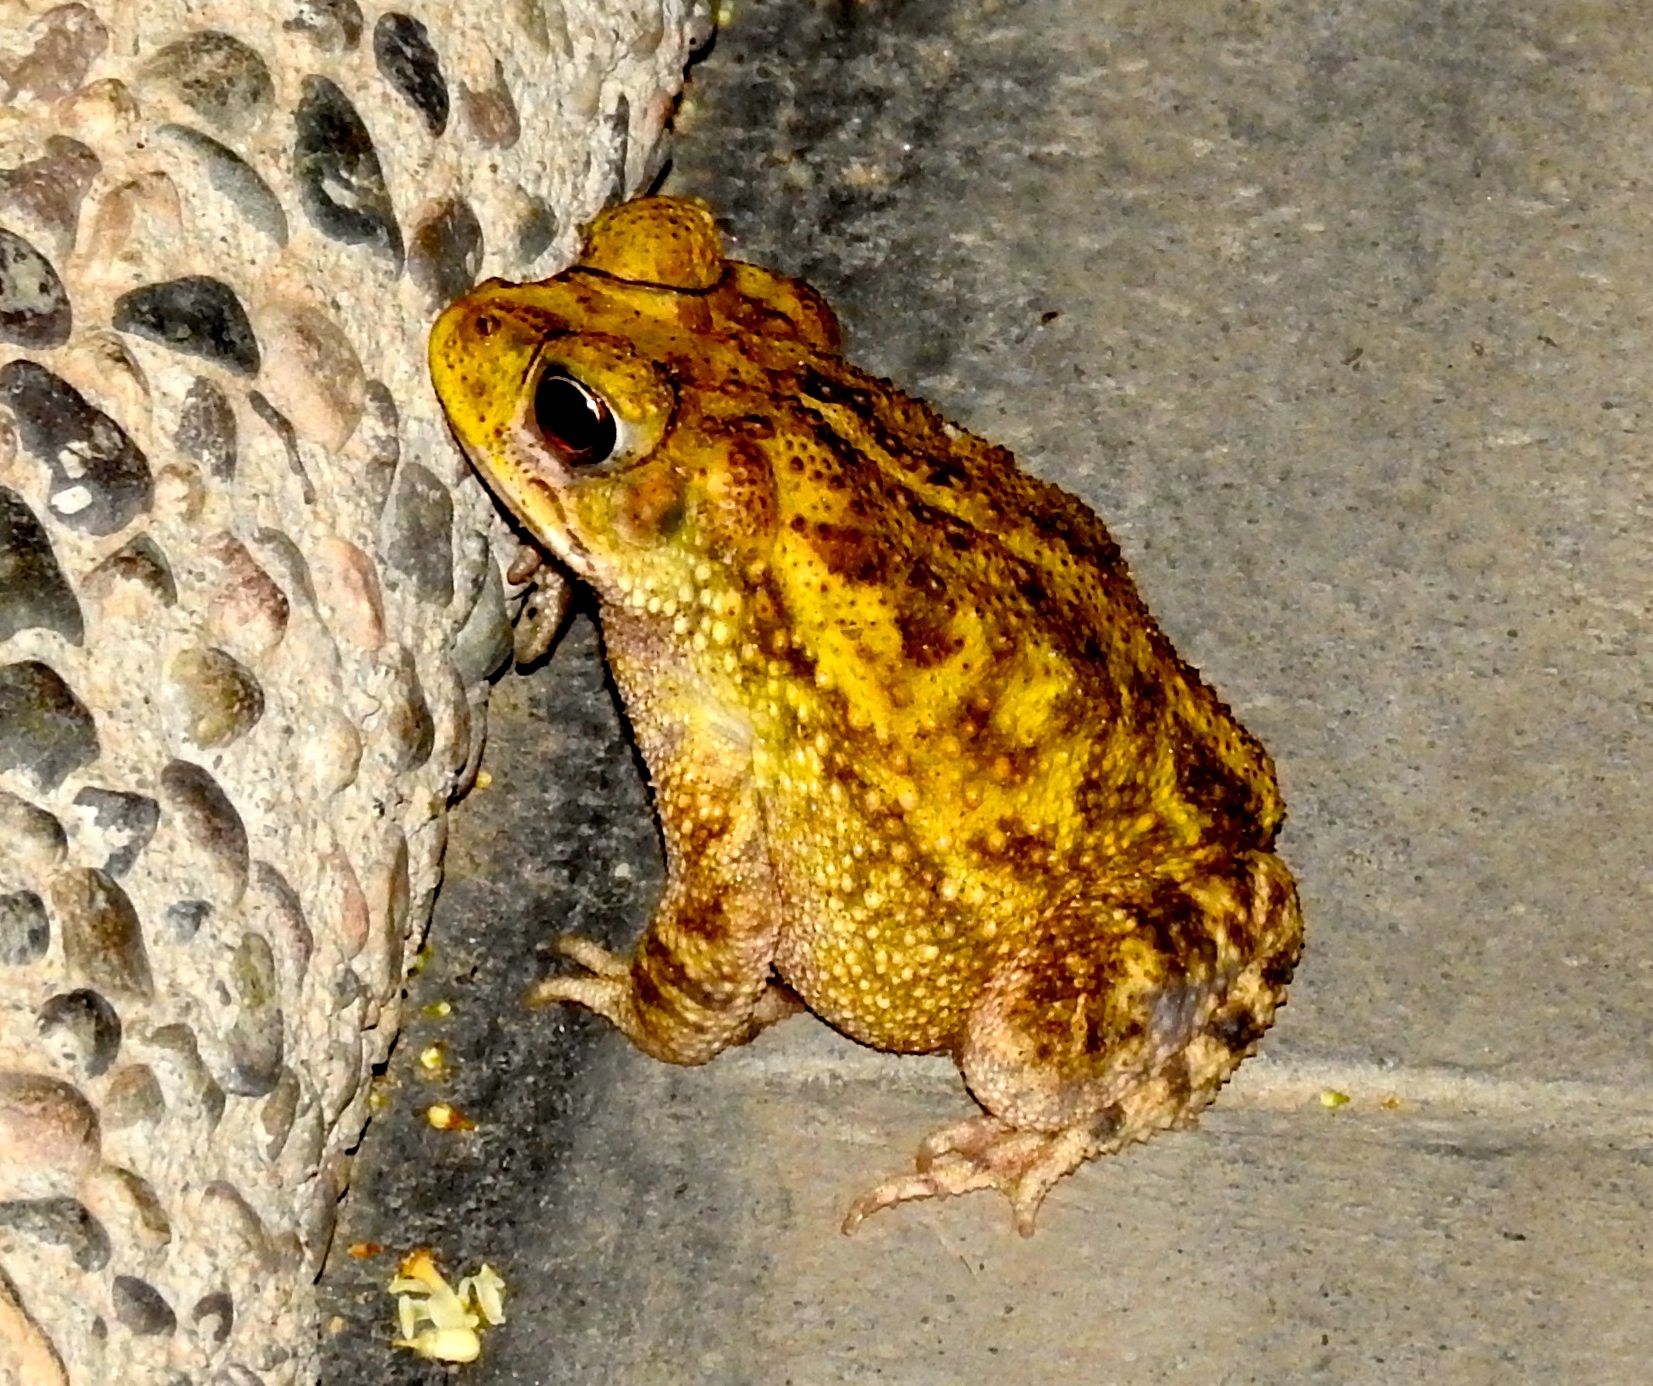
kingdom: Animalia
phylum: Chordata
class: Amphibia
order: Anura
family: Bufonidae
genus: Incilius
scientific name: Incilius mazatlanensis
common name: Sinaloa toad
